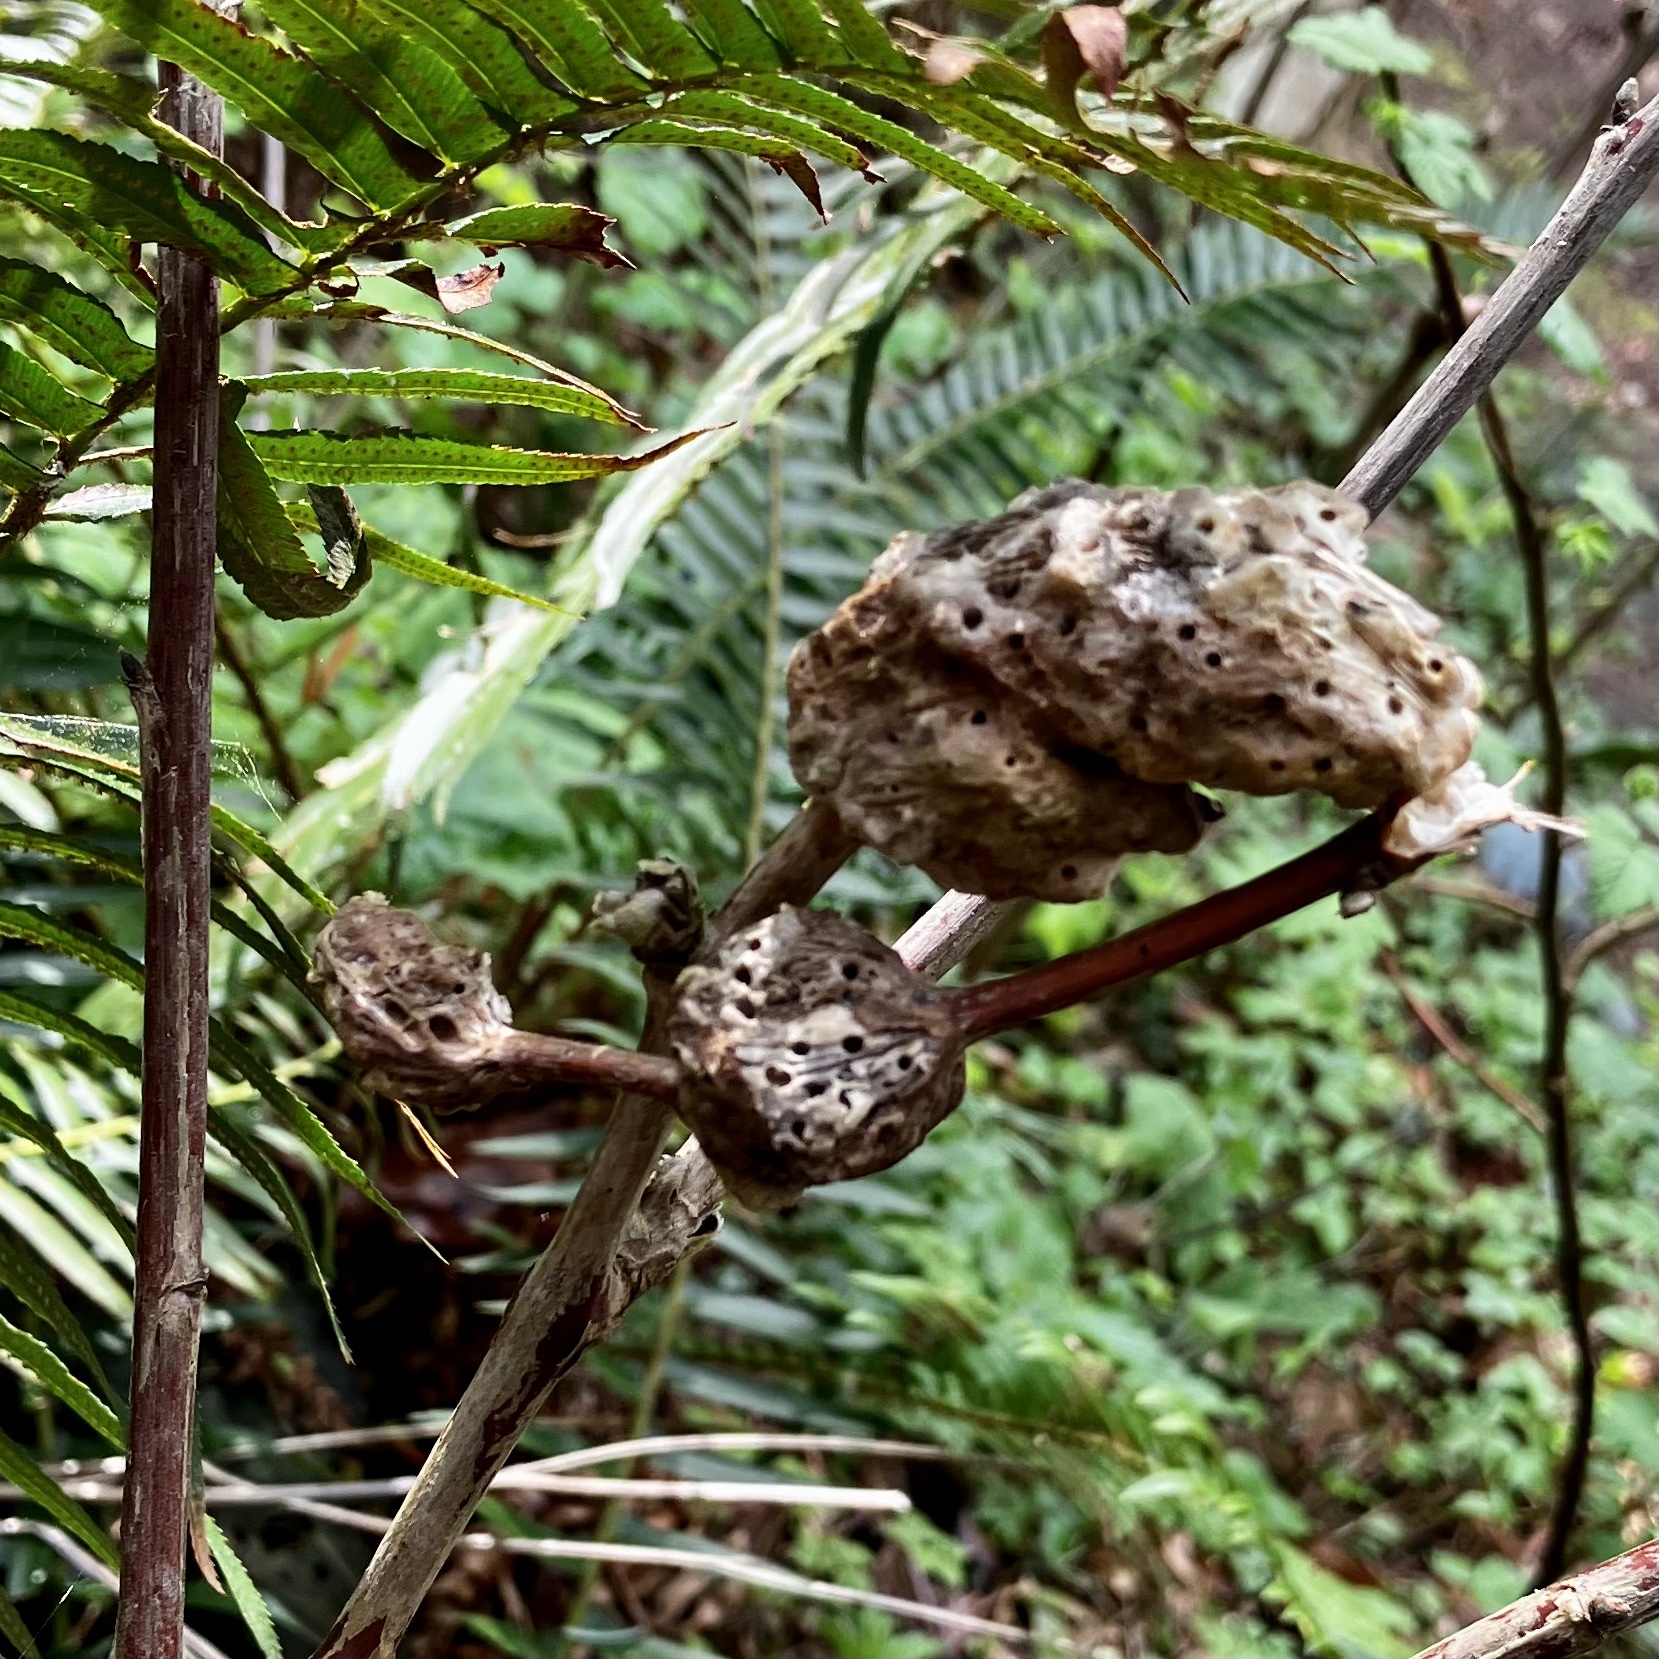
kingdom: Animalia
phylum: Arthropoda
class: Insecta
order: Hymenoptera
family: Cynipidae
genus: Diastrophus
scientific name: Diastrophus
